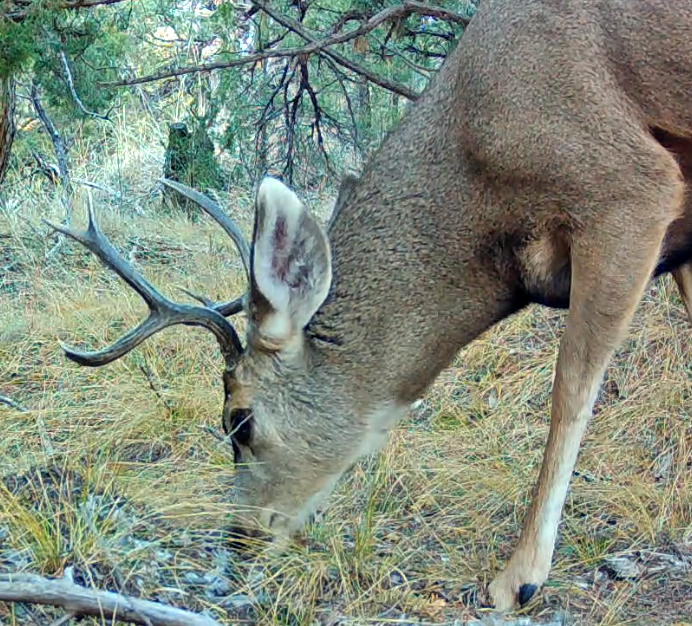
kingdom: Animalia
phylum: Chordata
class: Mammalia
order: Artiodactyla
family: Cervidae
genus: Odocoileus
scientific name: Odocoileus hemionus
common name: Mule deer
